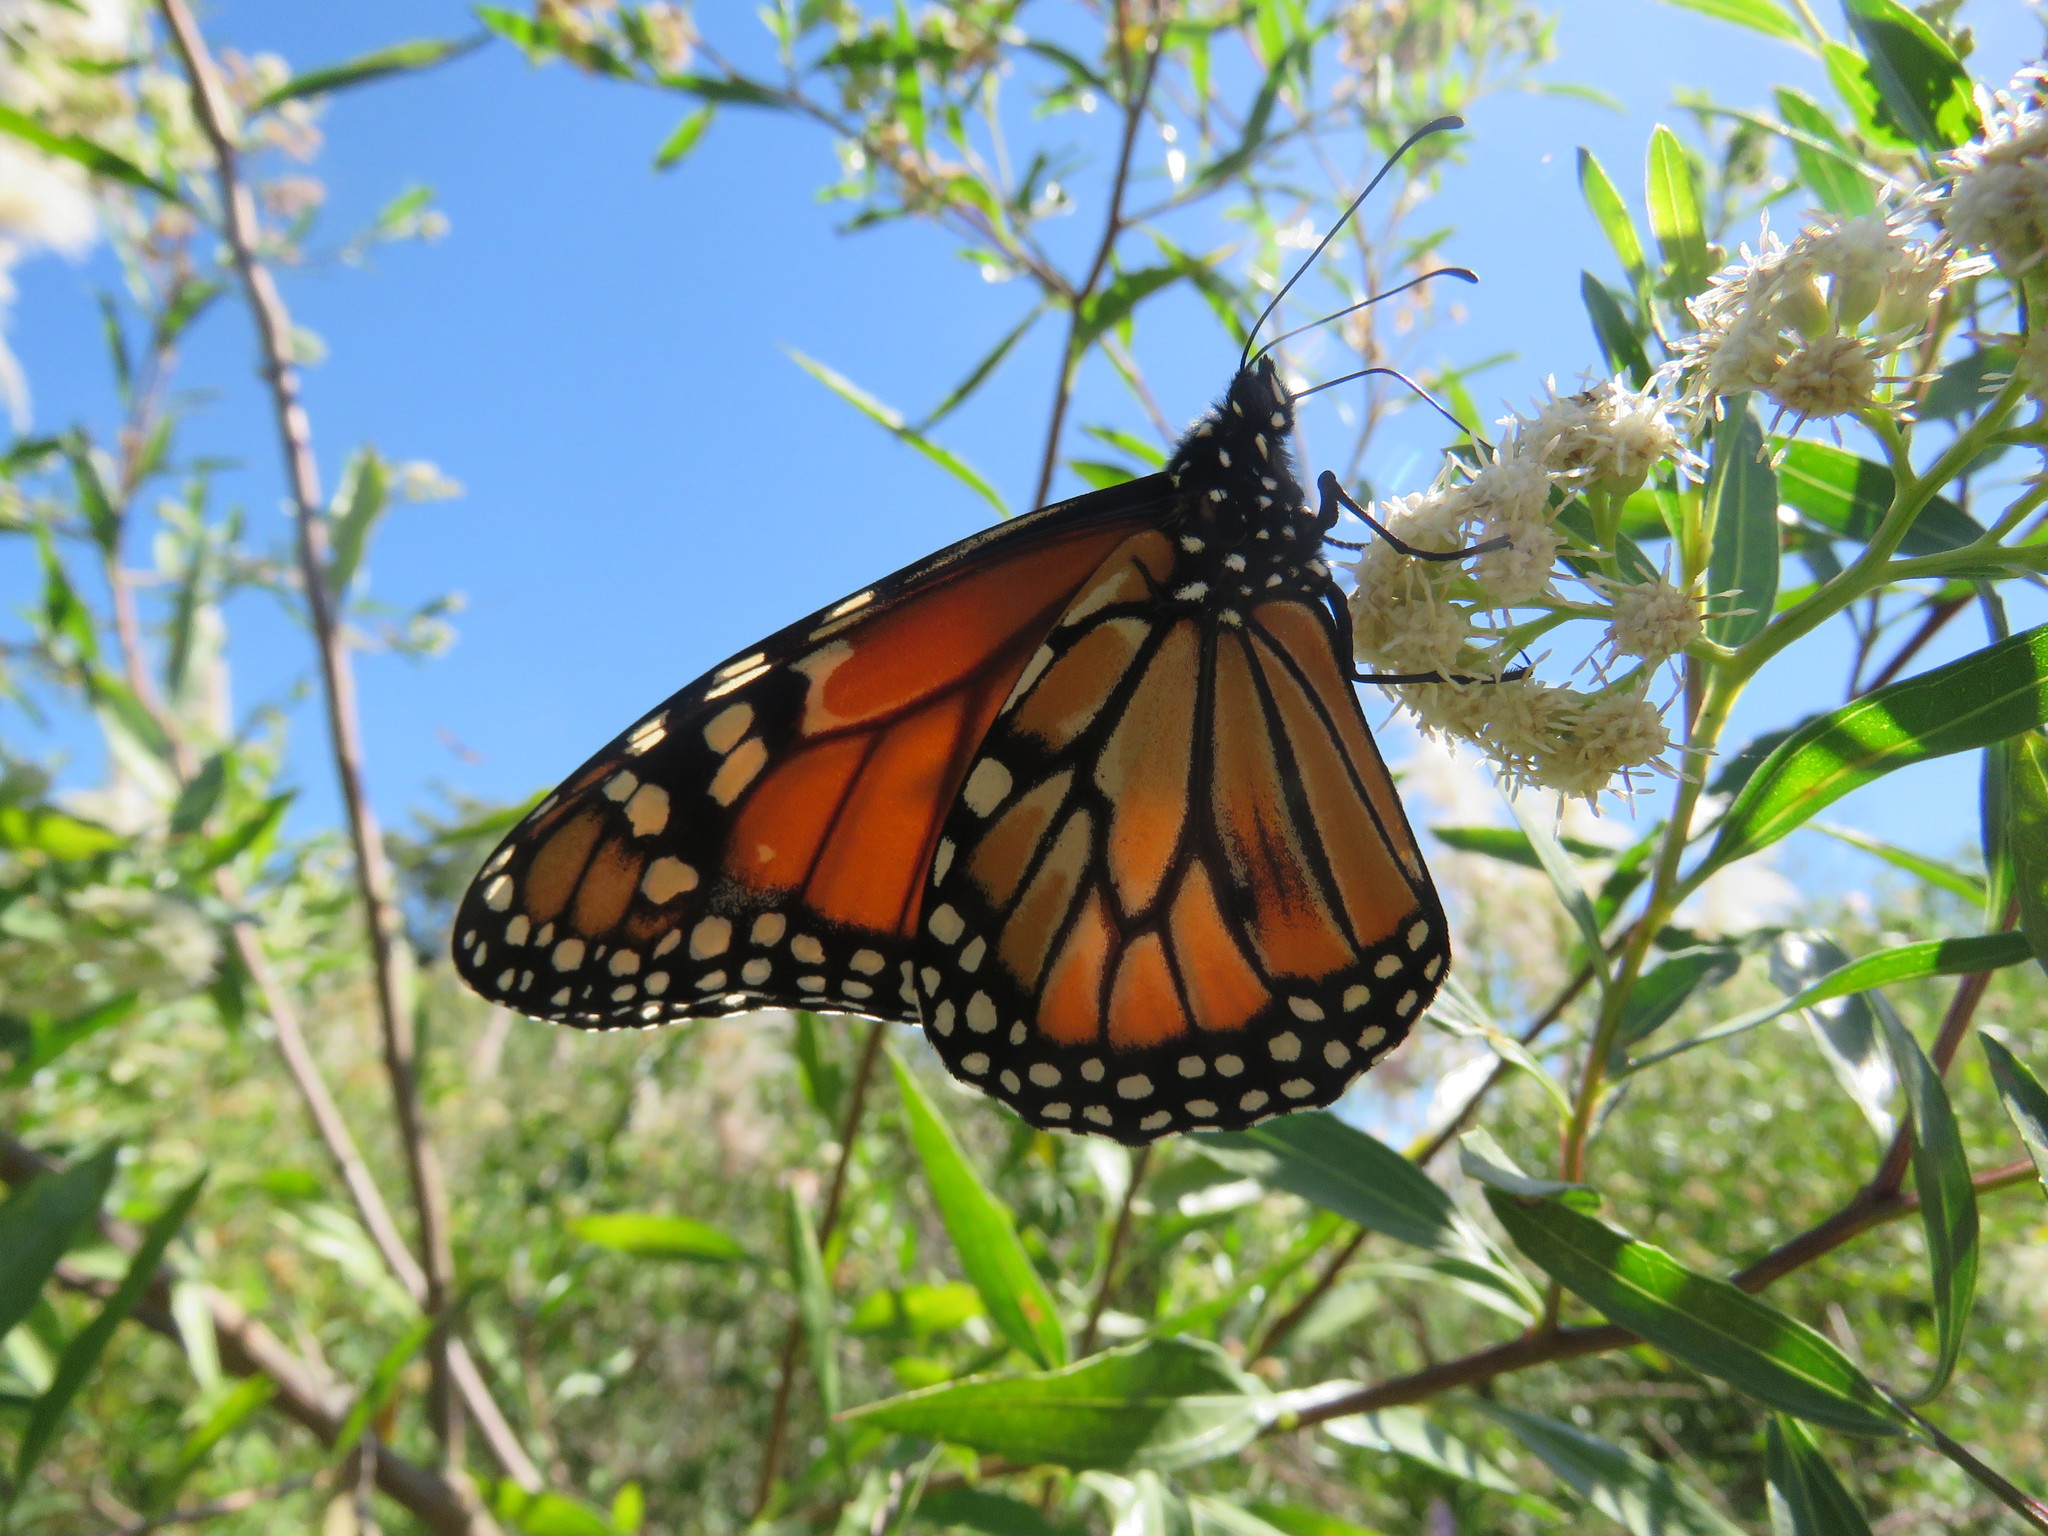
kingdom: Animalia
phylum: Arthropoda
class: Insecta
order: Lepidoptera
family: Nymphalidae
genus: Danaus
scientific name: Danaus erippus
